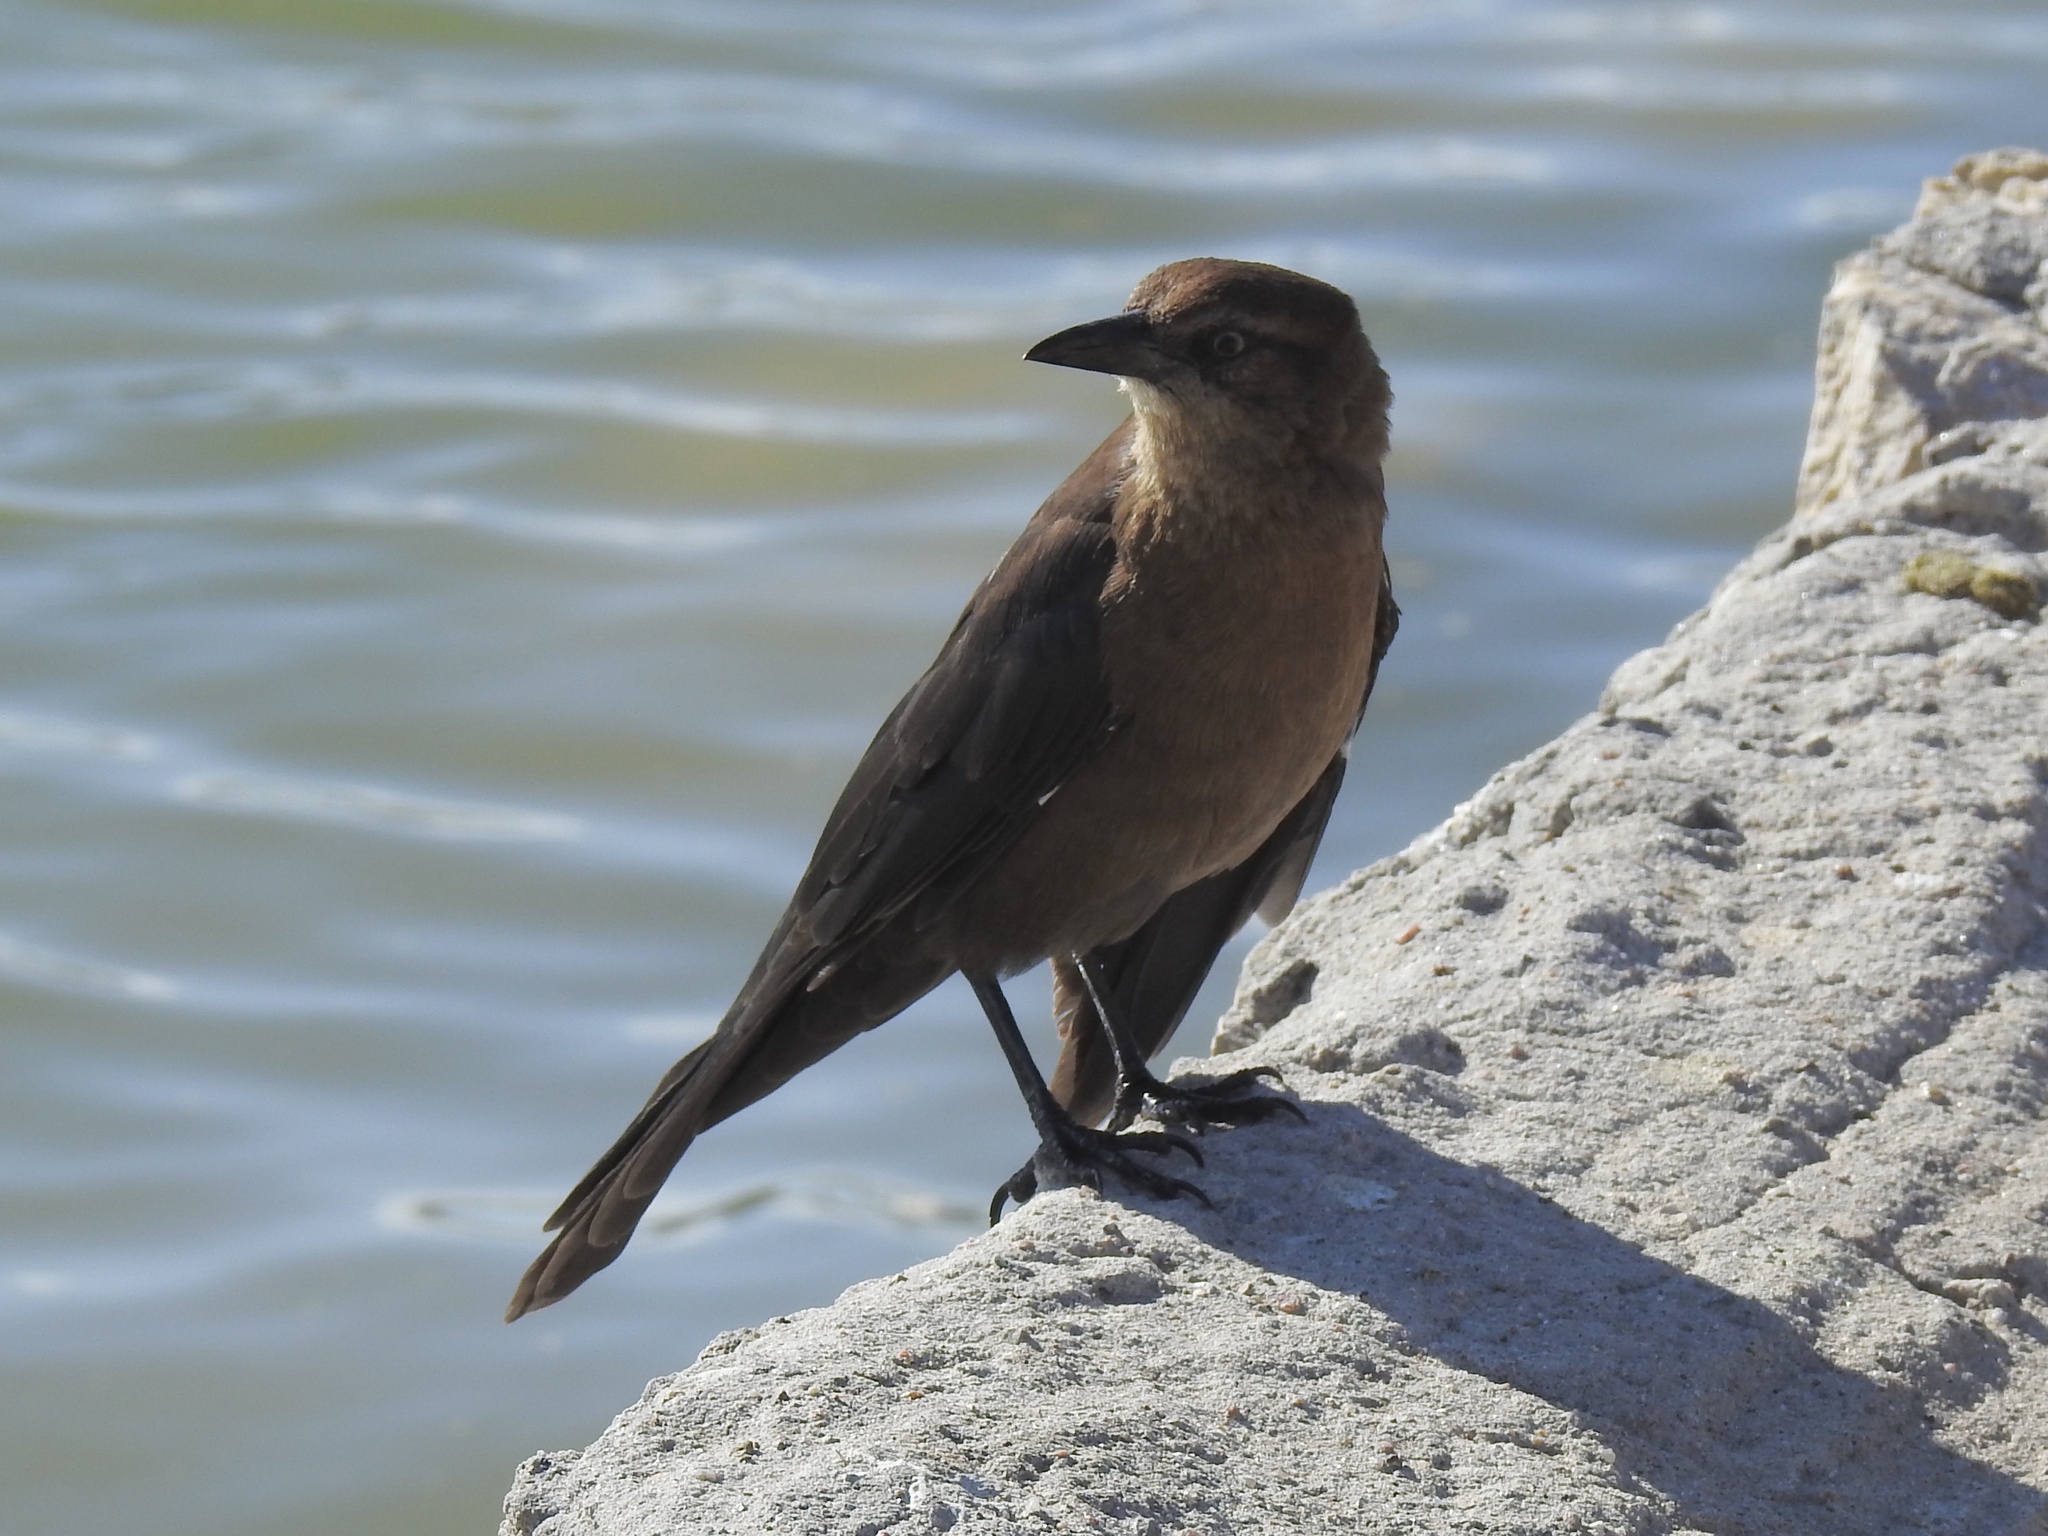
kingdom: Animalia
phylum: Chordata
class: Aves
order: Passeriformes
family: Icteridae
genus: Quiscalus
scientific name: Quiscalus mexicanus
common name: Great-tailed grackle
